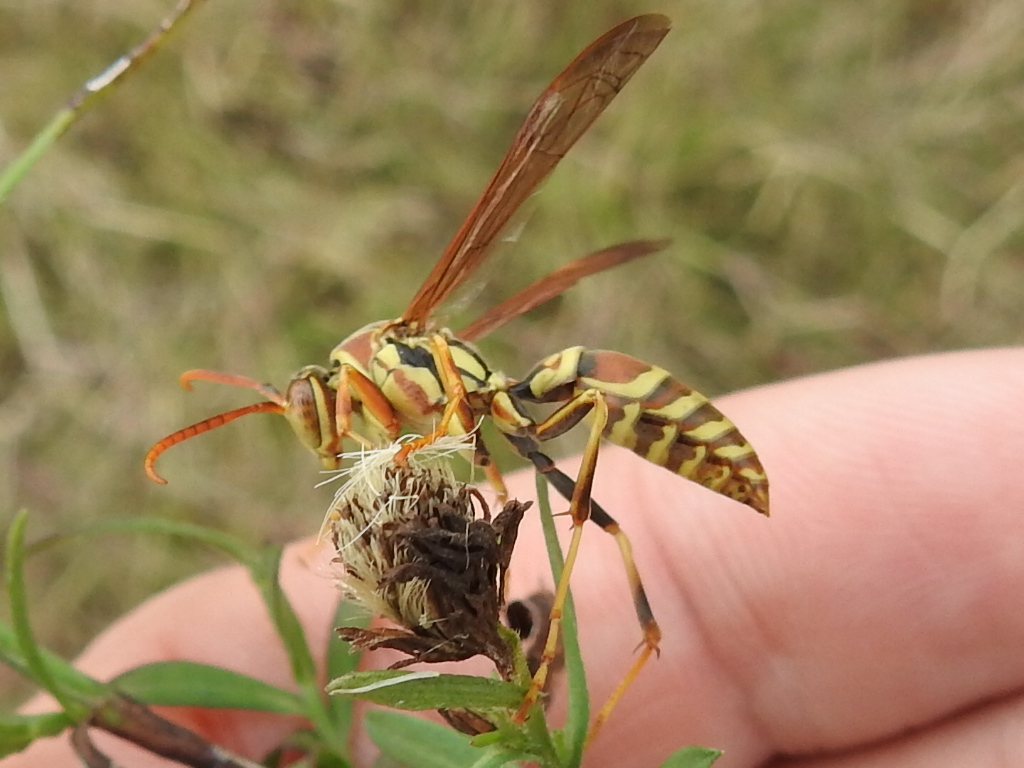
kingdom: Animalia
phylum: Arthropoda
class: Insecta
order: Hymenoptera
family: Eumenidae
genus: Polistes
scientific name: Polistes exclamans
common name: Paper wasp
